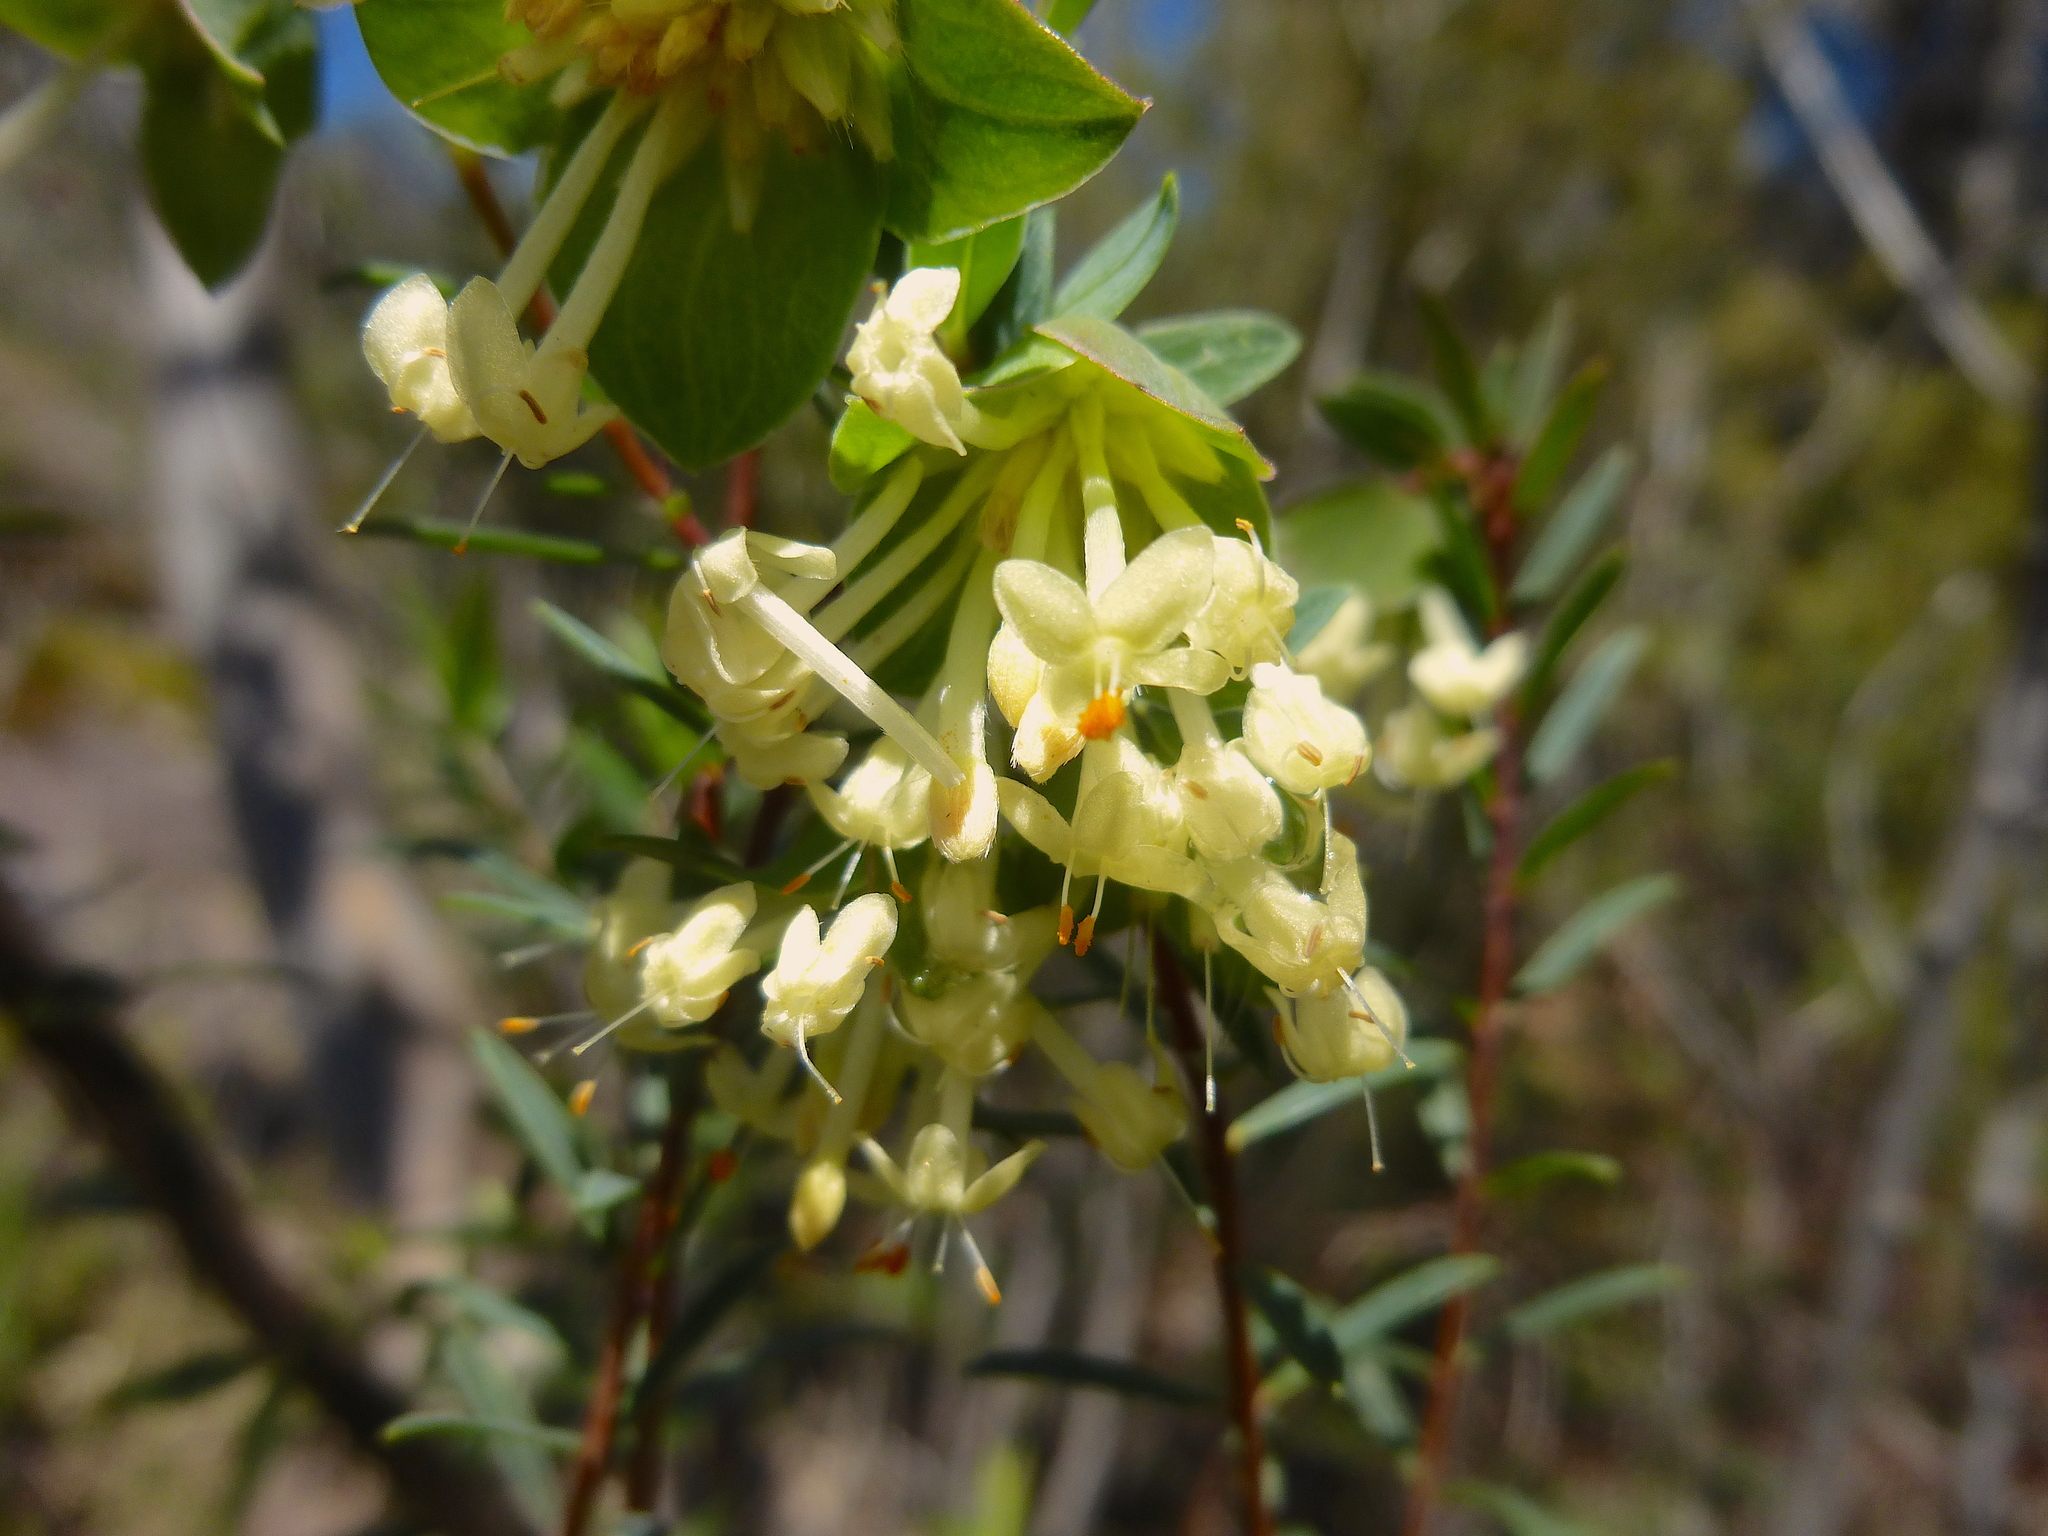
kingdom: Plantae
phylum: Tracheophyta
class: Magnoliopsida
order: Malvales
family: Thymelaeaceae
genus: Pimelea
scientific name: Pimelea linifolia
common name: Queen-of-the-bush
